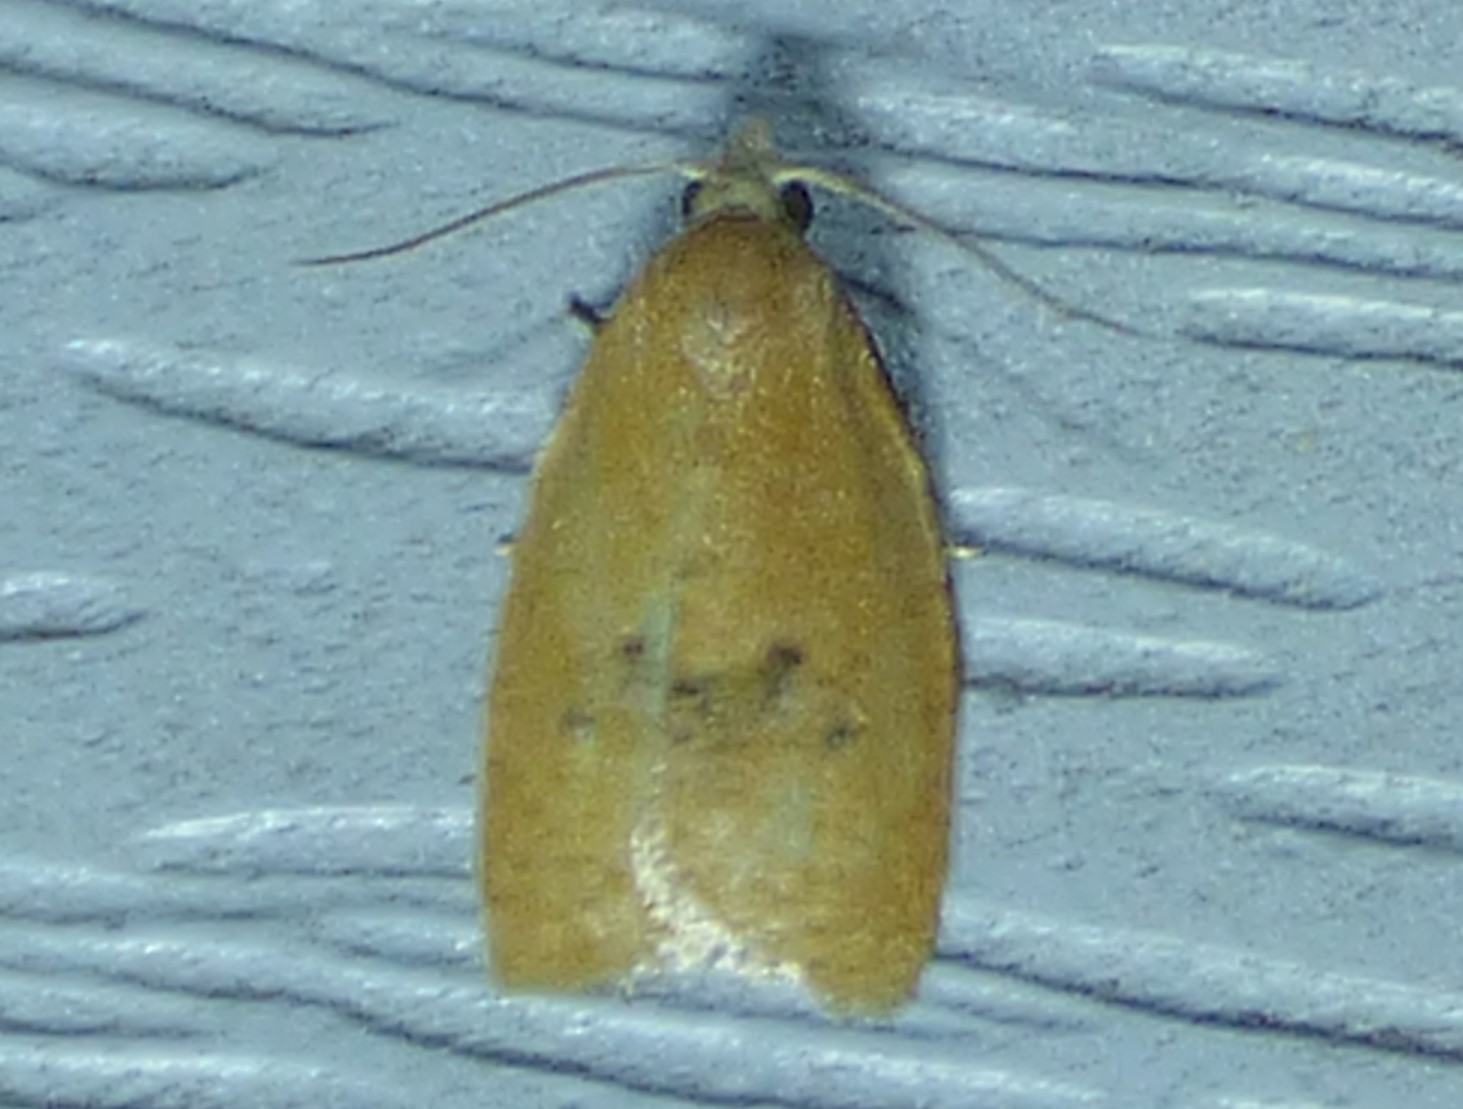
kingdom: Animalia
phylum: Arthropoda
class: Insecta
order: Lepidoptera
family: Tortricidae
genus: Sparganothoides
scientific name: Sparganothoides lentiginosana
